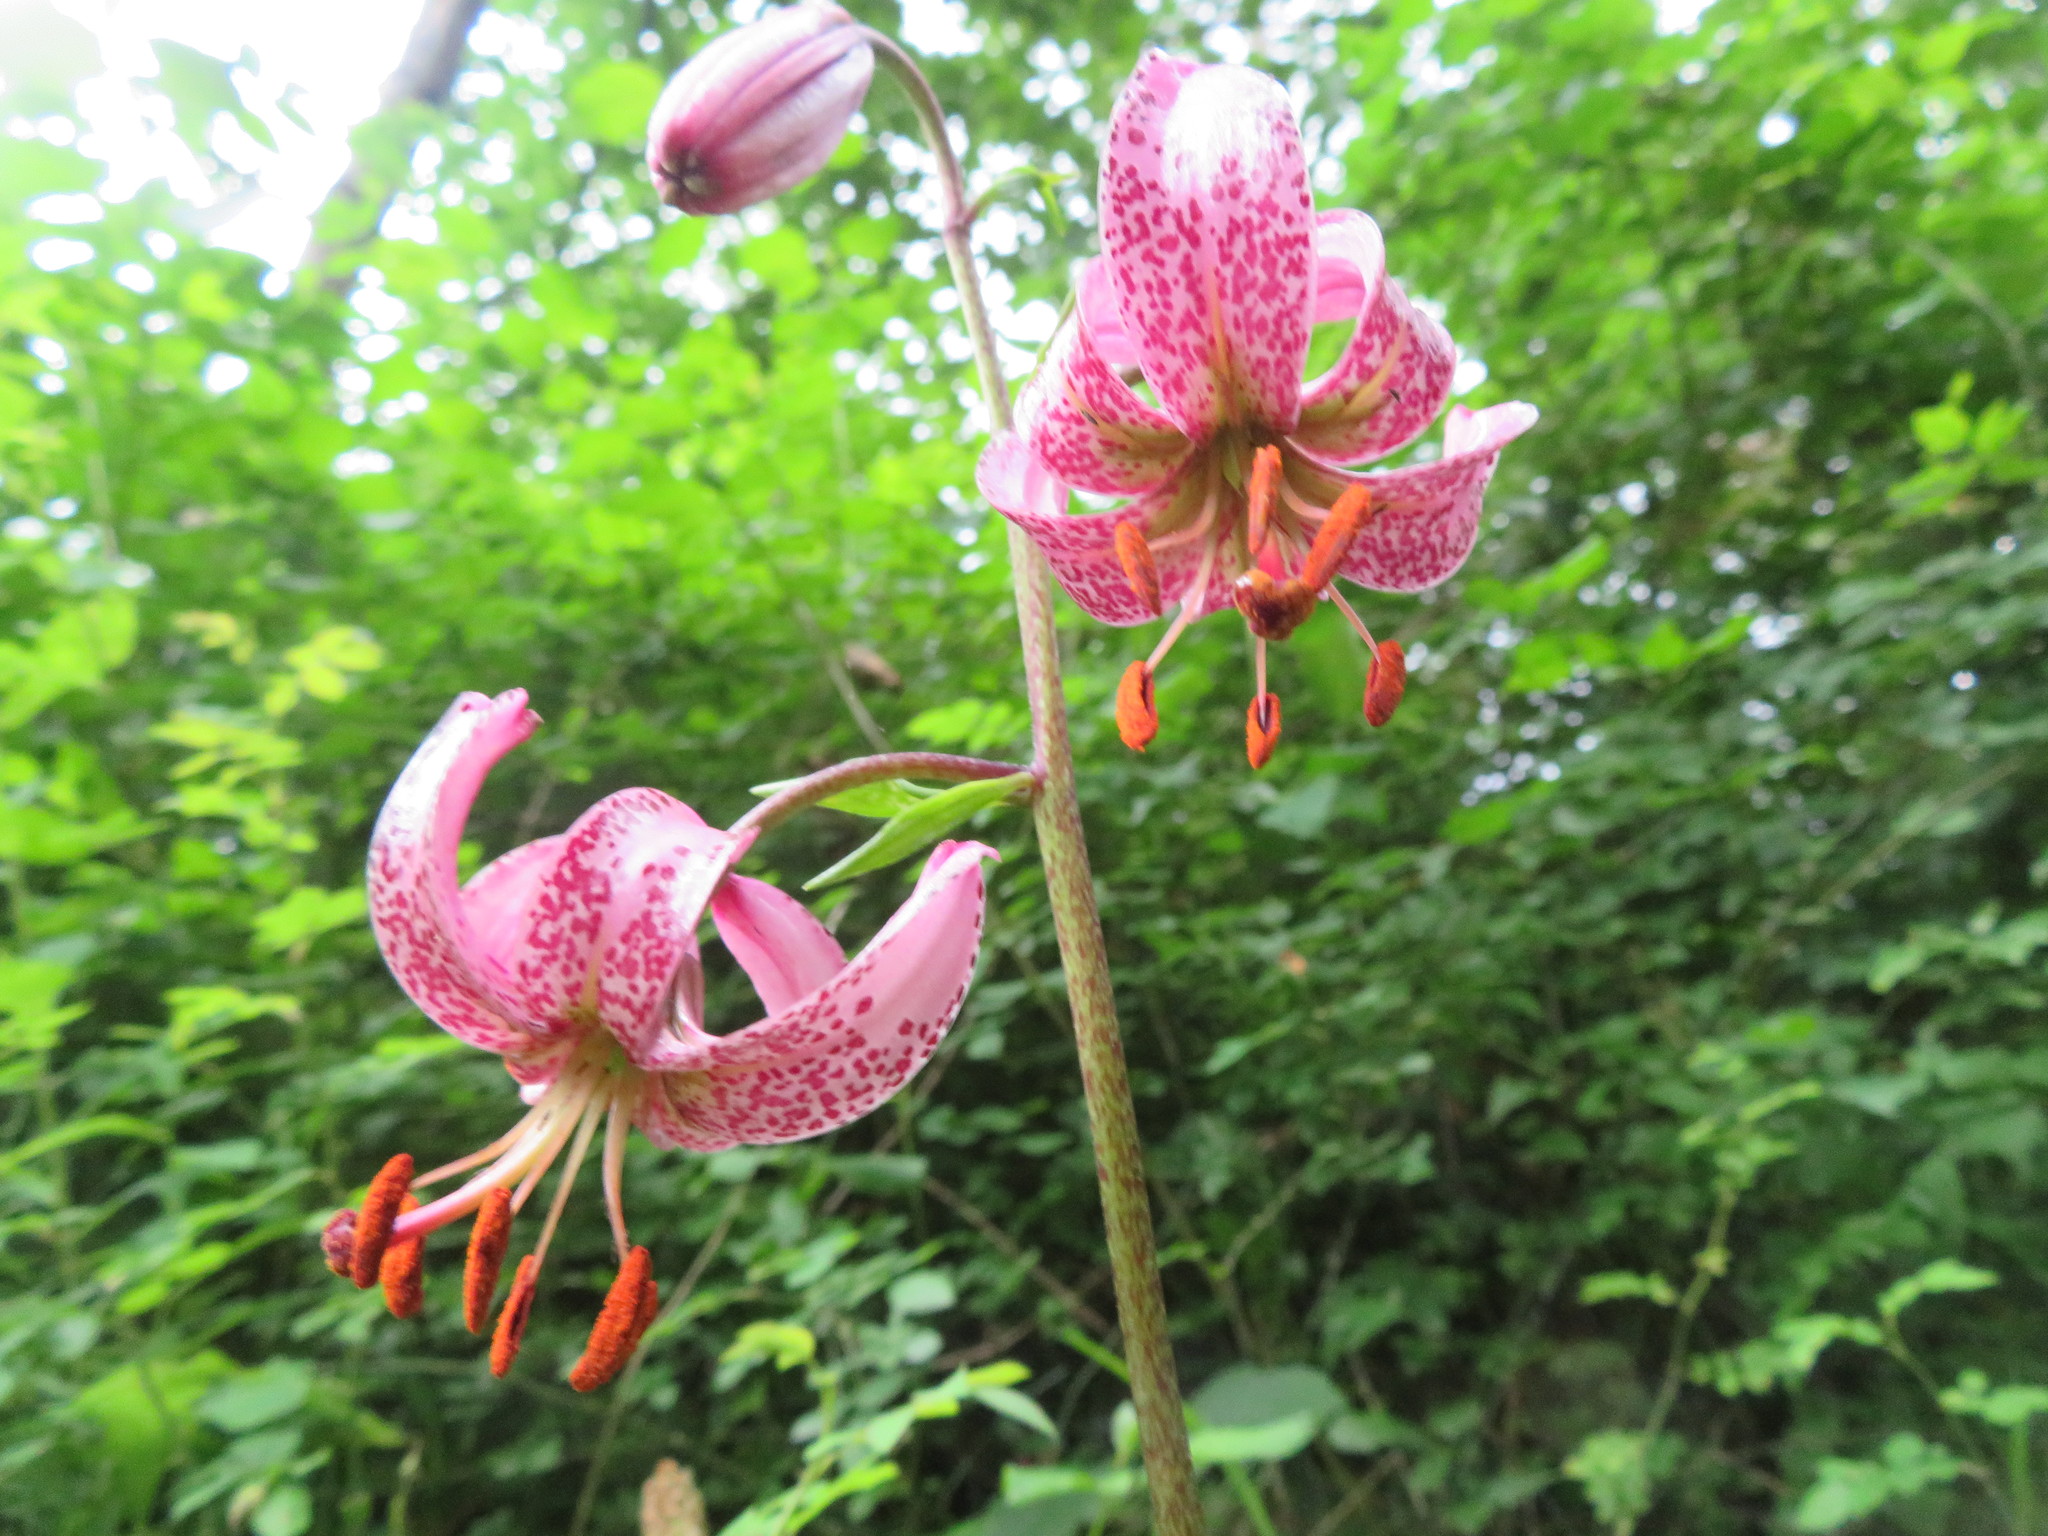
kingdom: Plantae
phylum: Tracheophyta
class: Liliopsida
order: Liliales
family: Liliaceae
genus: Lilium
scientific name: Lilium martagon
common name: Martagon lily
